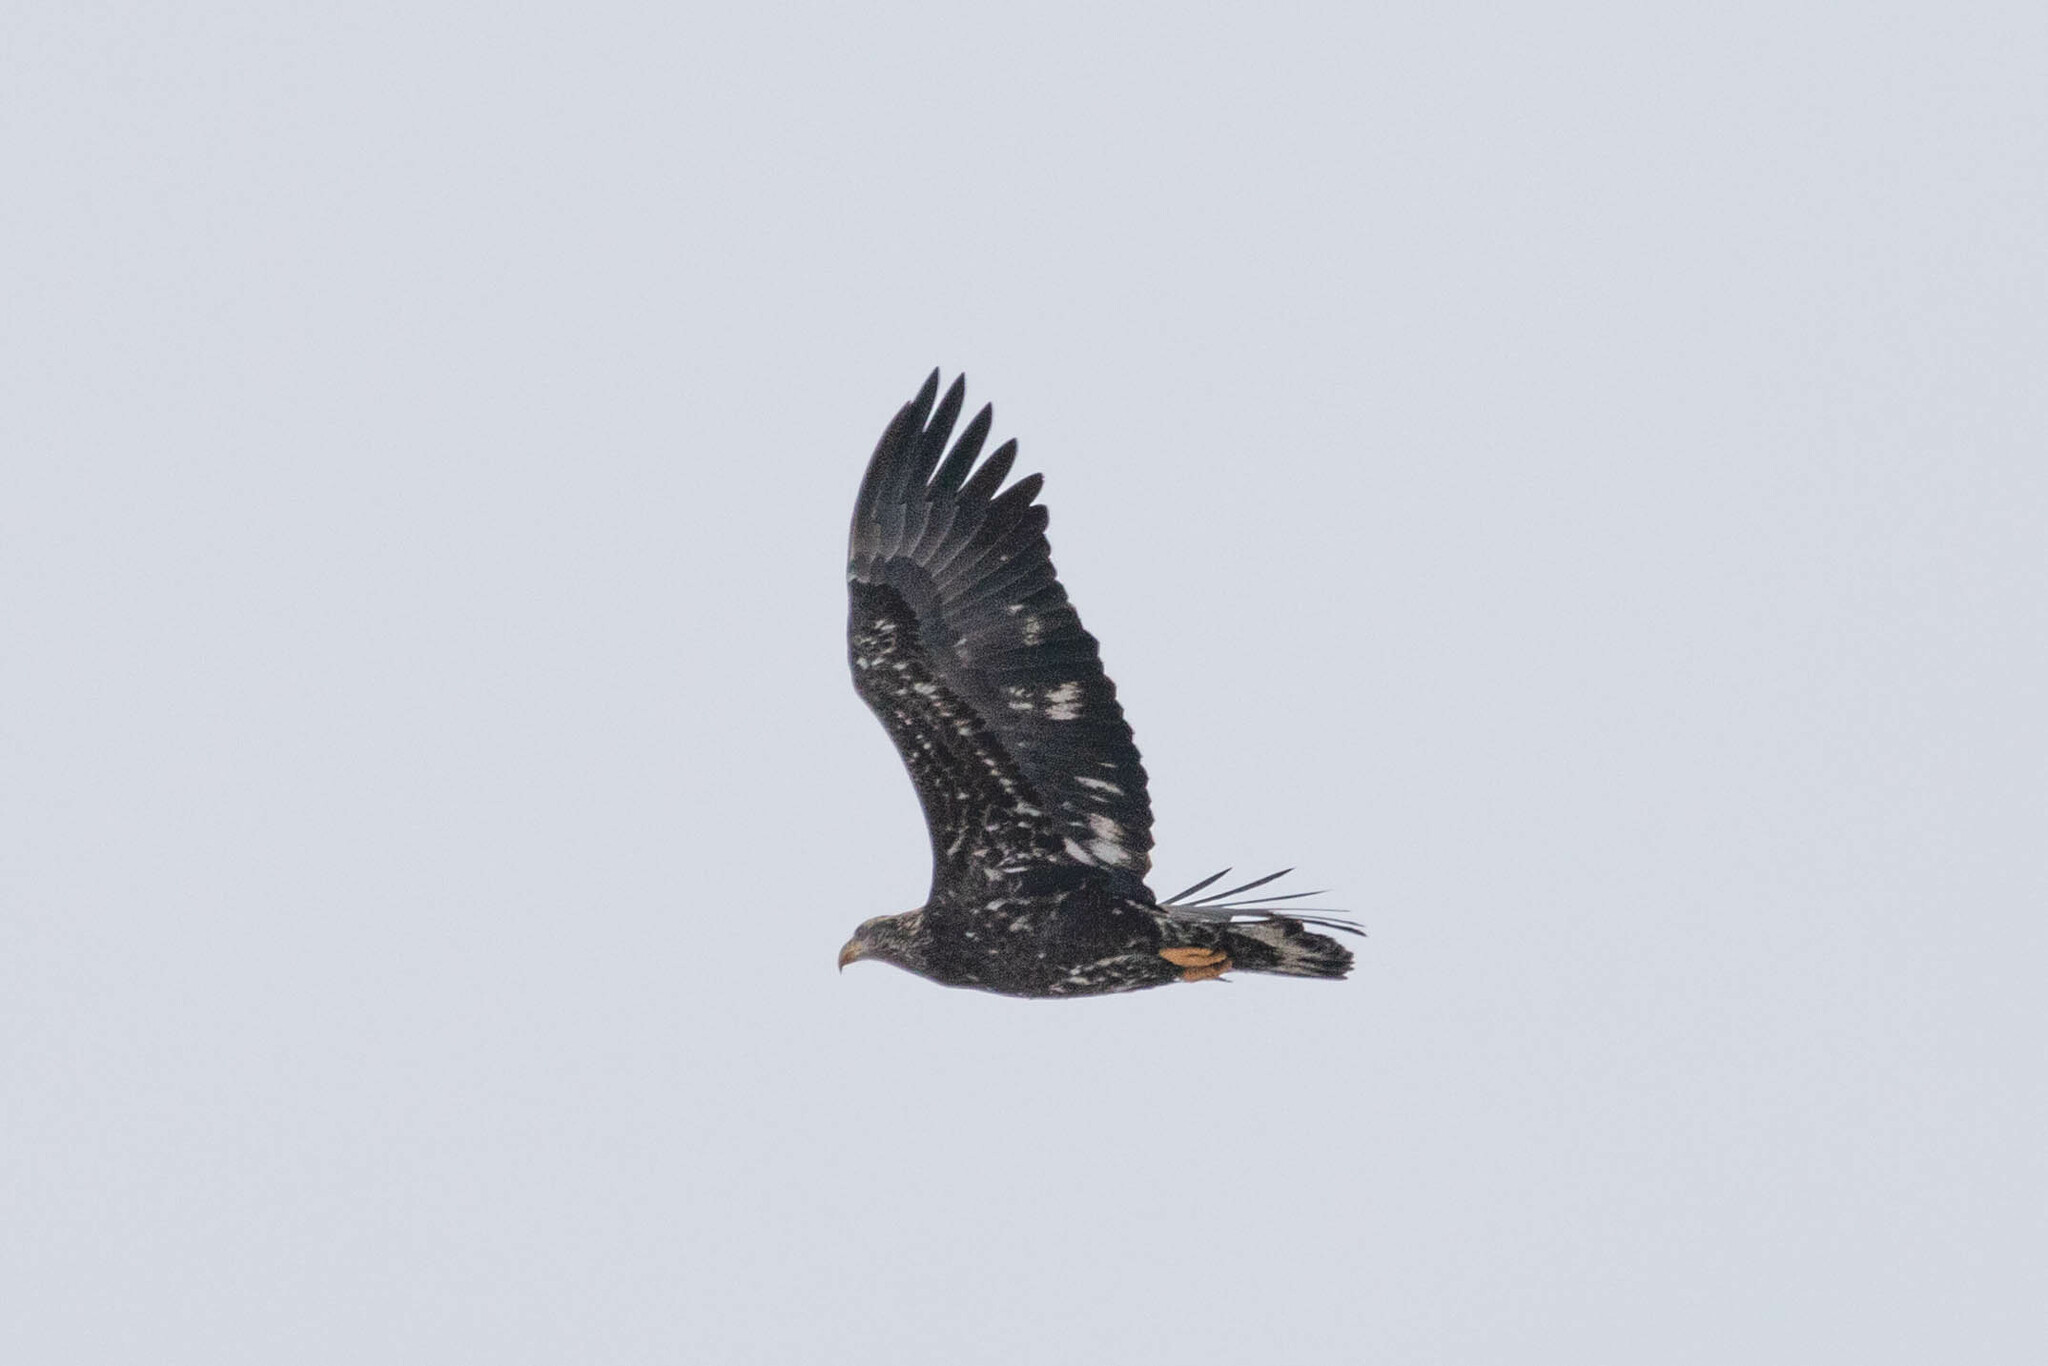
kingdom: Animalia
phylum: Chordata
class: Aves
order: Accipitriformes
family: Accipitridae
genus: Haliaeetus
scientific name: Haliaeetus leucocephalus
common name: Bald eagle
